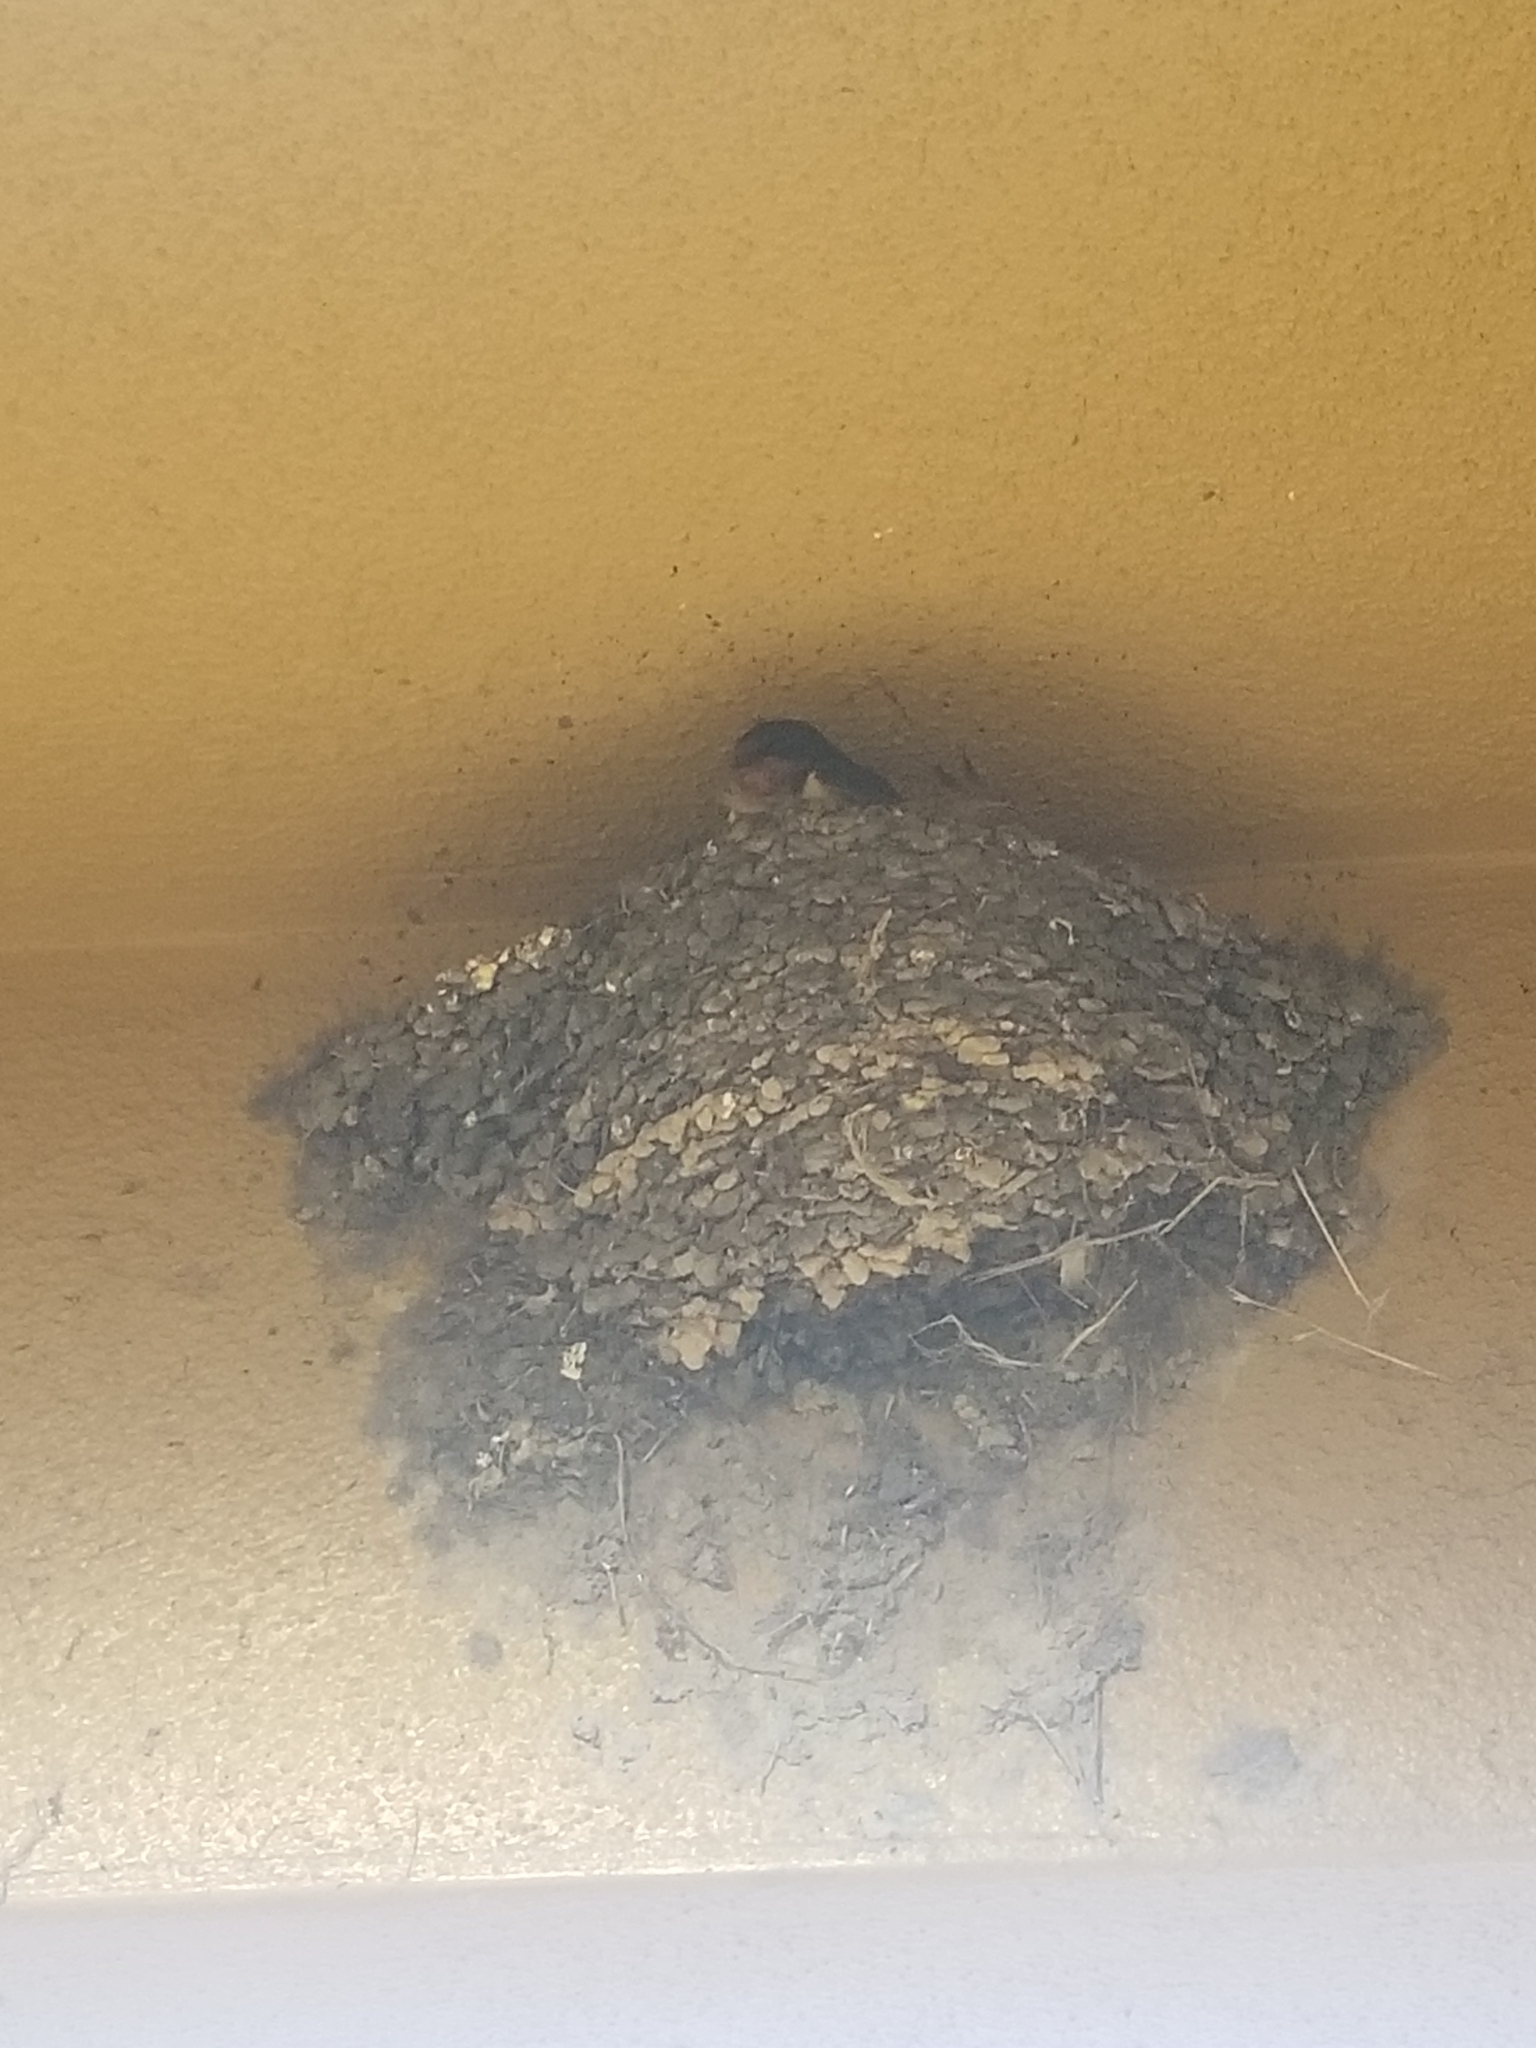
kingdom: Animalia
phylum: Chordata
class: Aves
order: Passeriformes
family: Hirundinidae
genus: Hirundo
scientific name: Hirundo rustica
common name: Barn swallow
